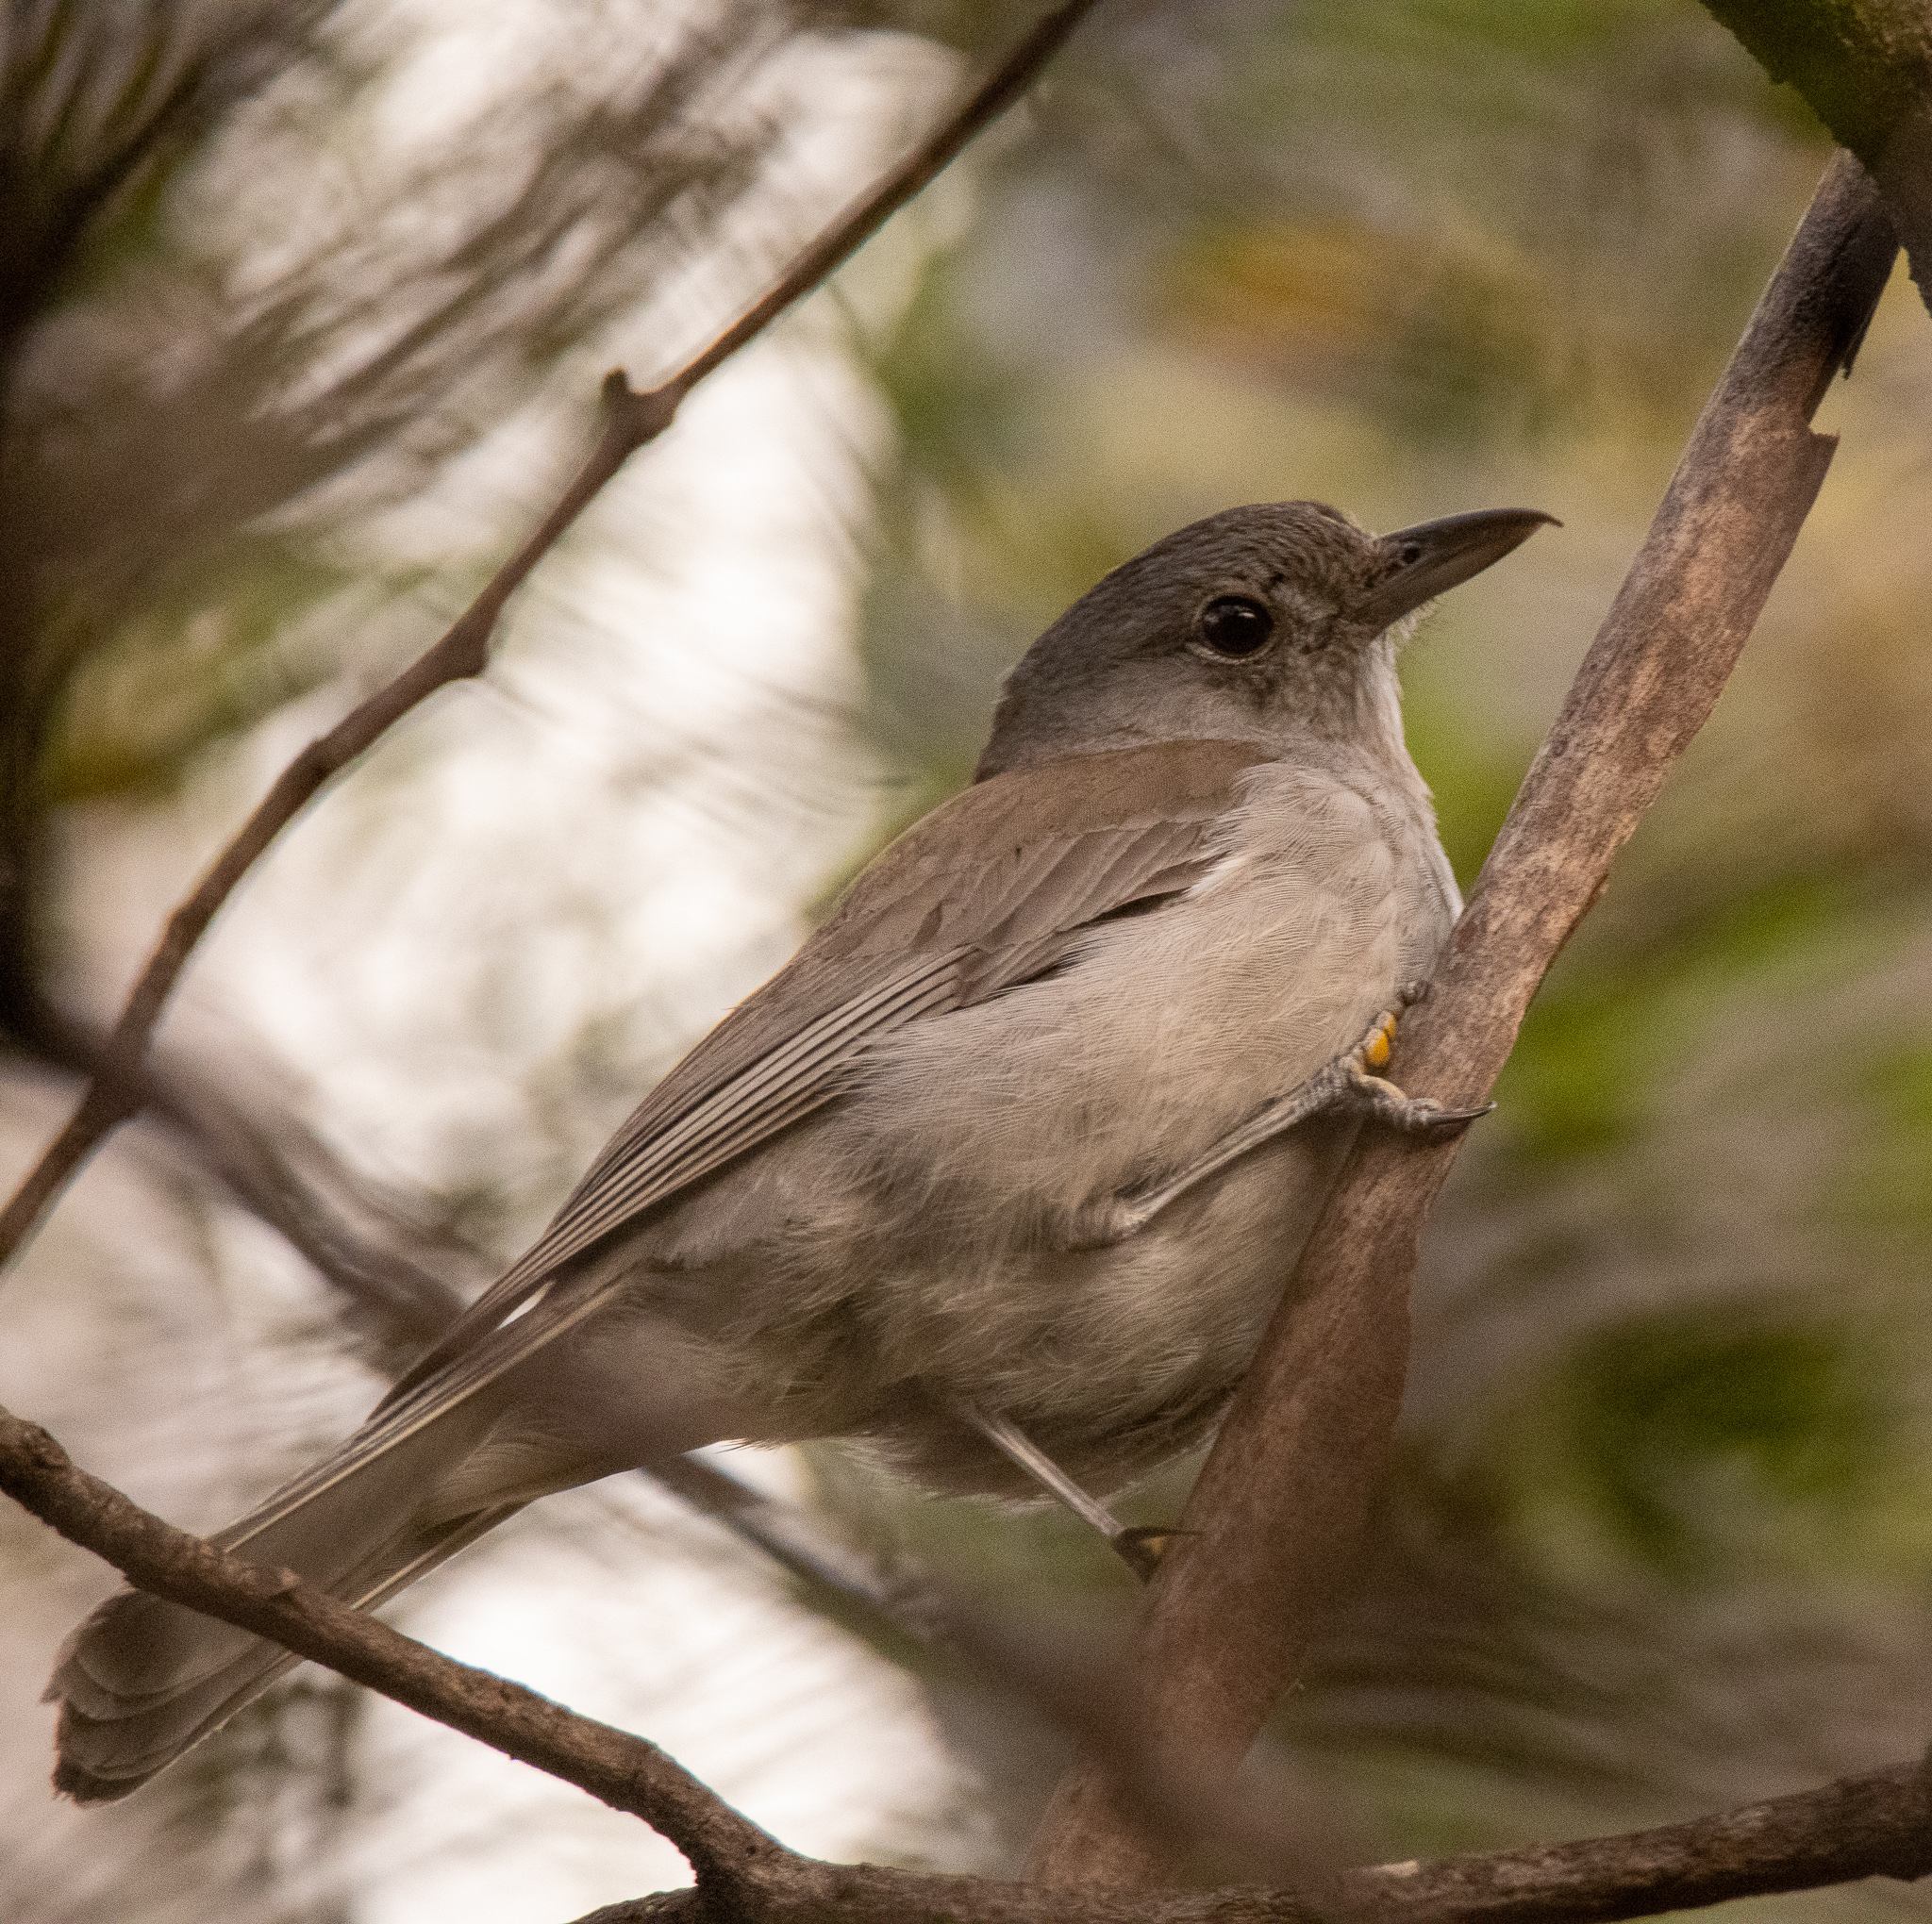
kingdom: Animalia
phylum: Chordata
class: Aves
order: Passeriformes
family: Pachycephalidae
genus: Colluricincla
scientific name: Colluricincla harmonica
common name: Grey shrikethrush
